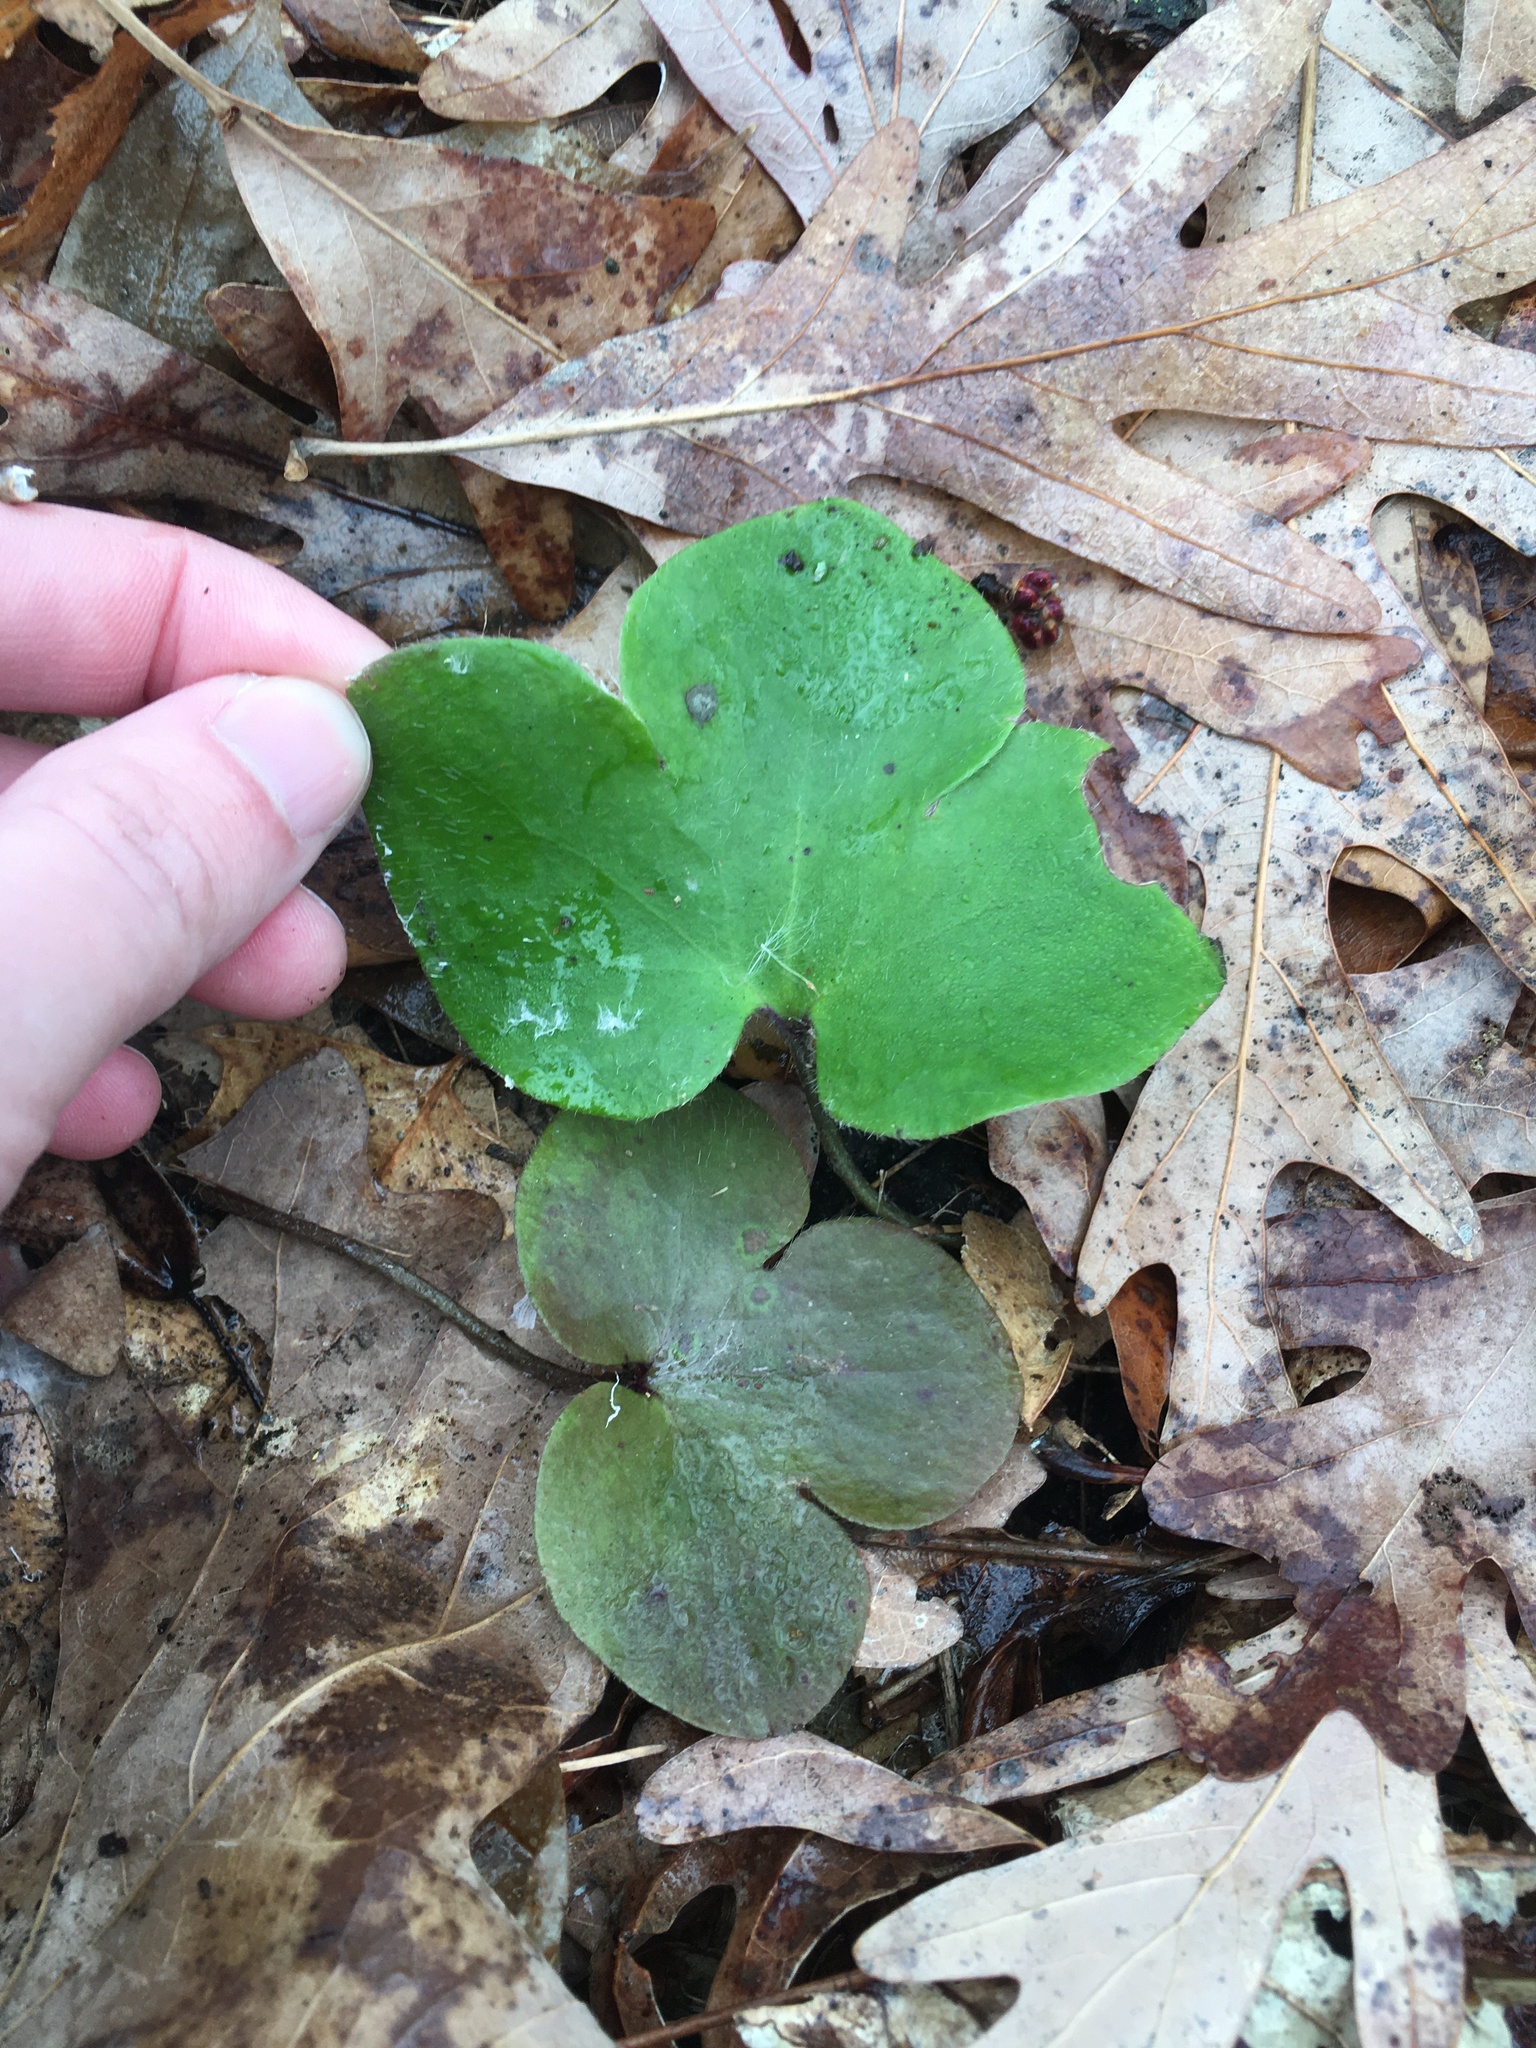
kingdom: Plantae
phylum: Tracheophyta
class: Magnoliopsida
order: Ranunculales
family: Ranunculaceae
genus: Hepatica
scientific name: Hepatica americana
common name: American hepatica
